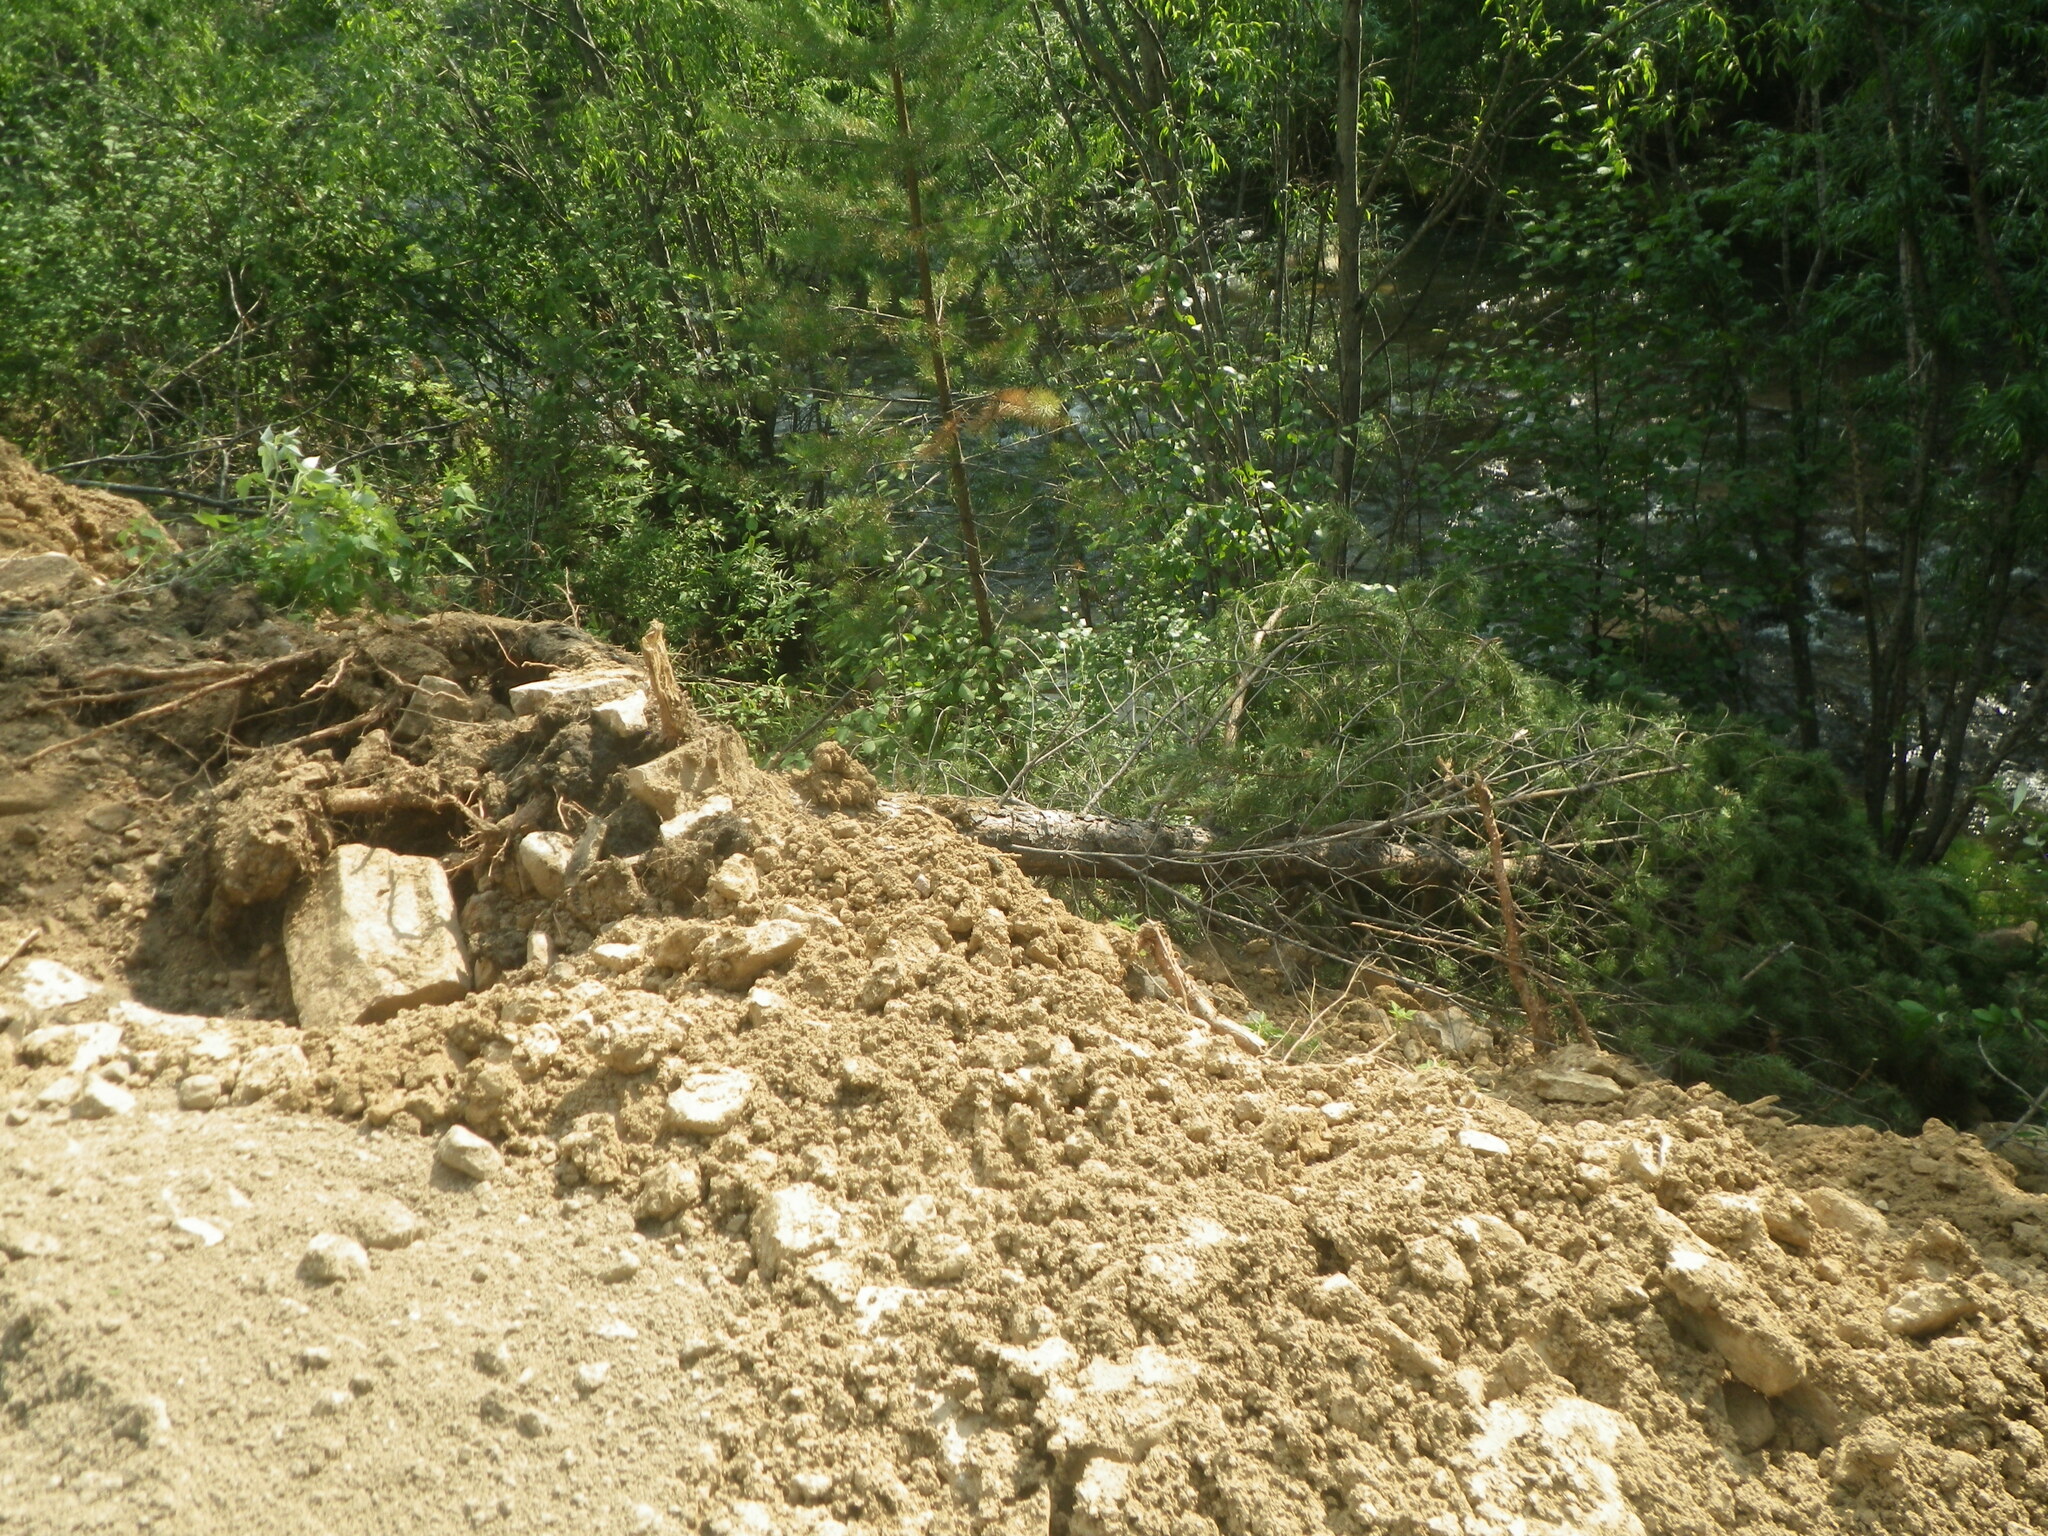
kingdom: Plantae
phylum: Tracheophyta
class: Pinopsida
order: Pinales
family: Pinaceae
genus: Pinus
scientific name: Pinus sylvestris
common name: Scots pine
